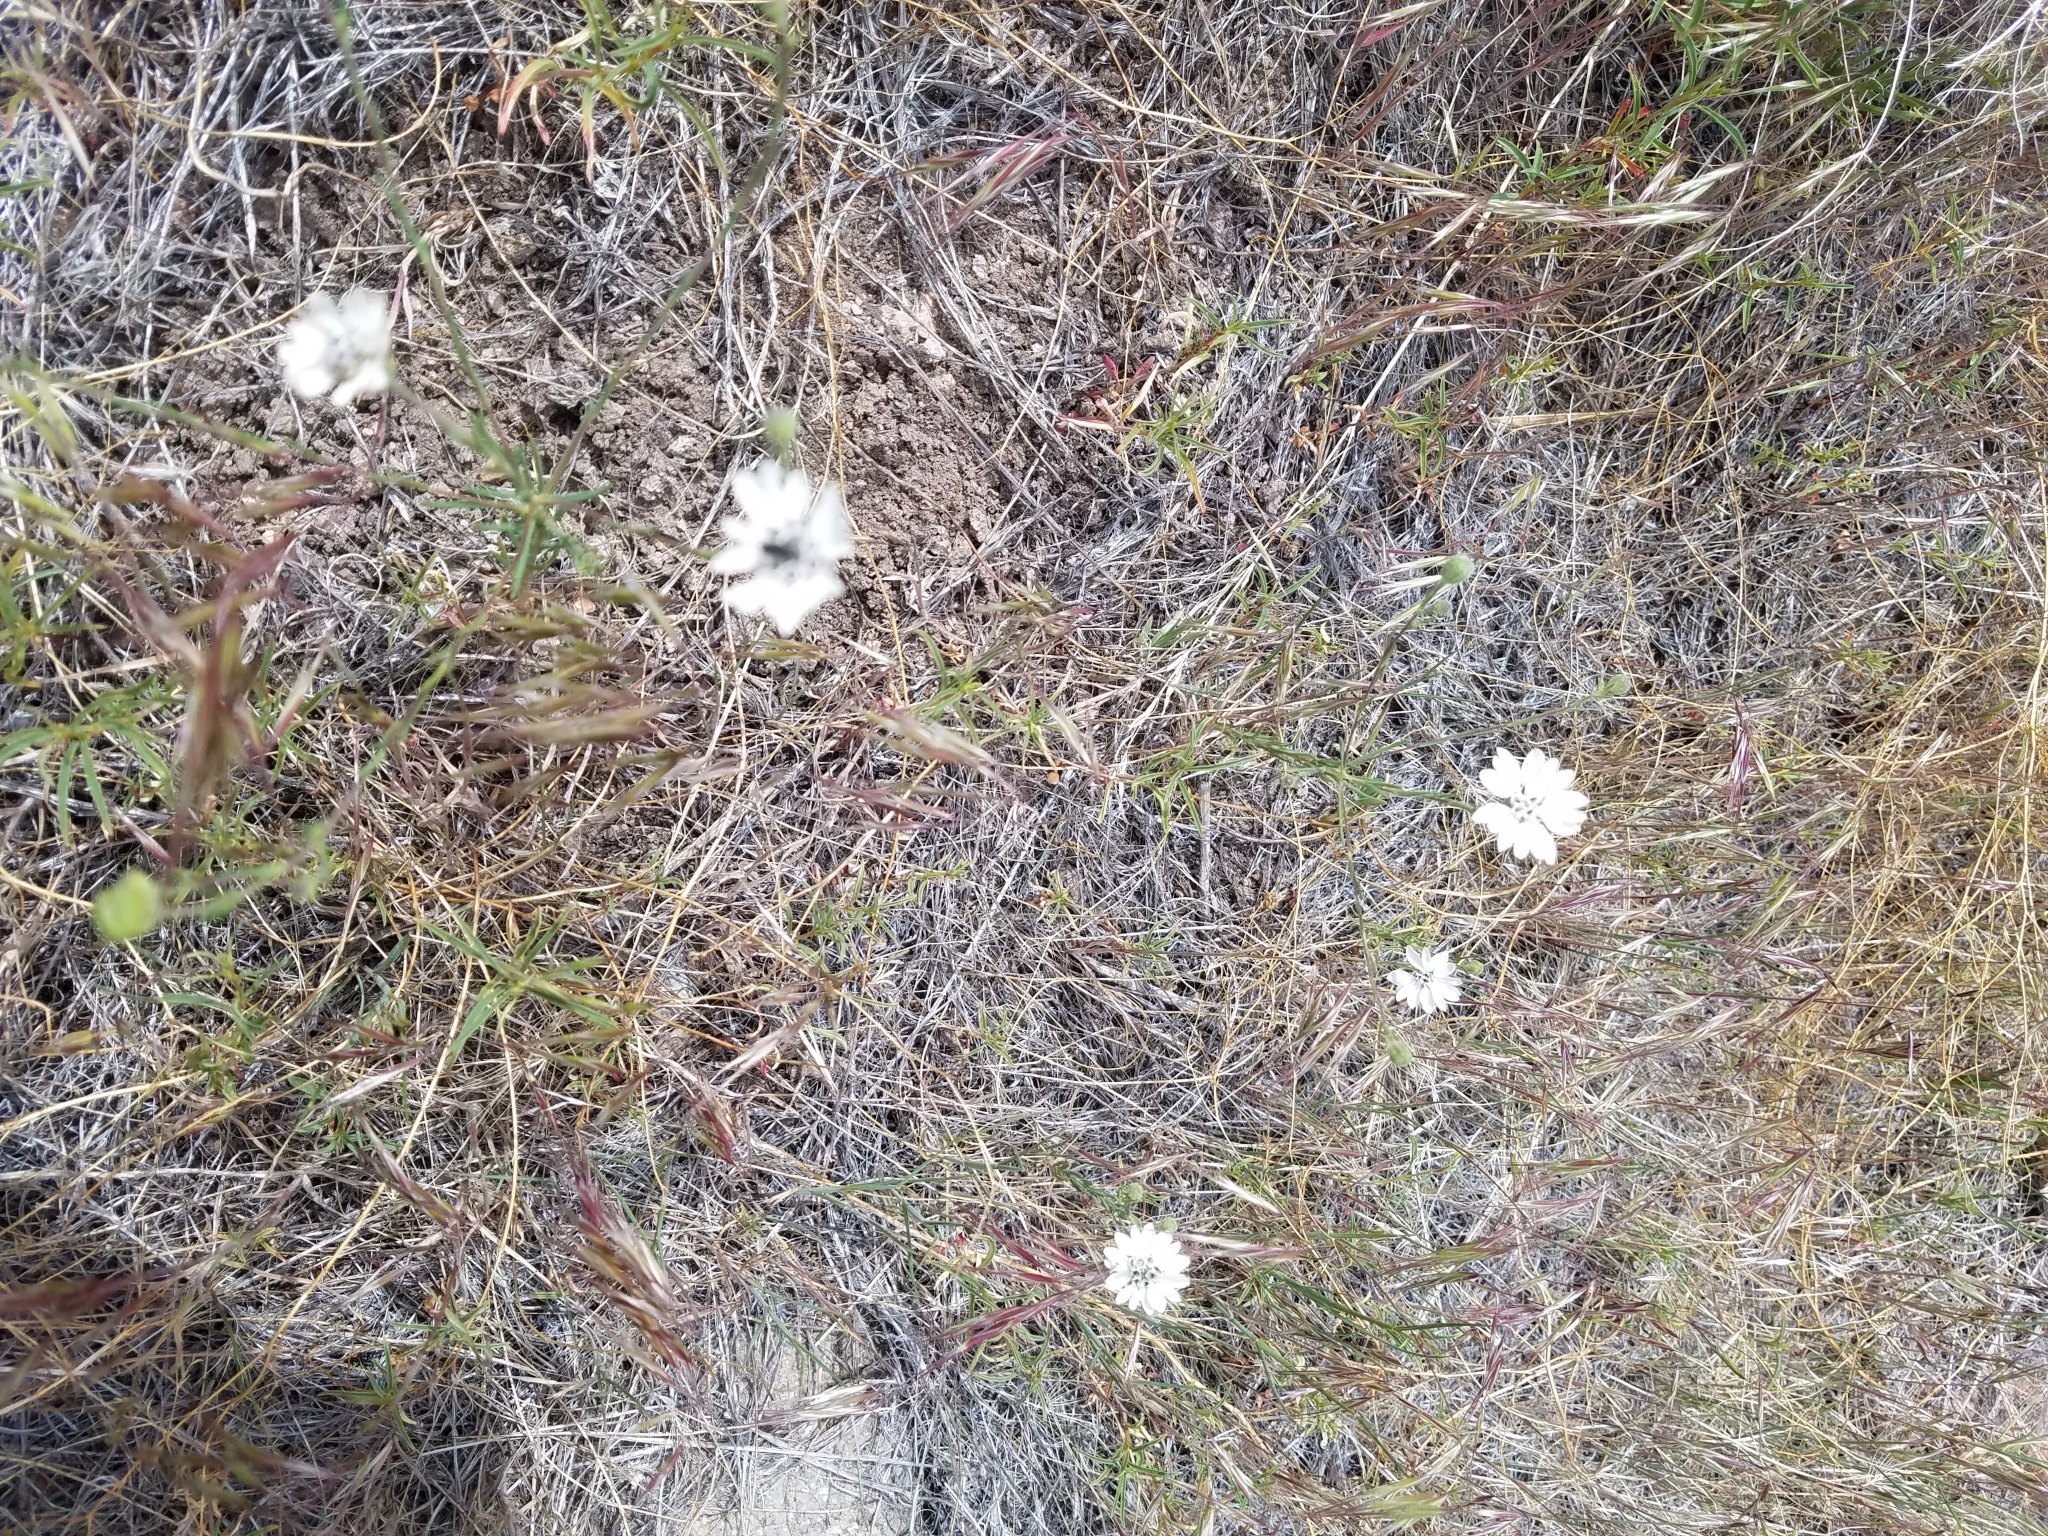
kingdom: Plantae
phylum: Tracheophyta
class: Magnoliopsida
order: Asterales
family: Asteraceae
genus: Blepharipappus
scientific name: Blepharipappus scaber
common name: Rough blepharipappus
